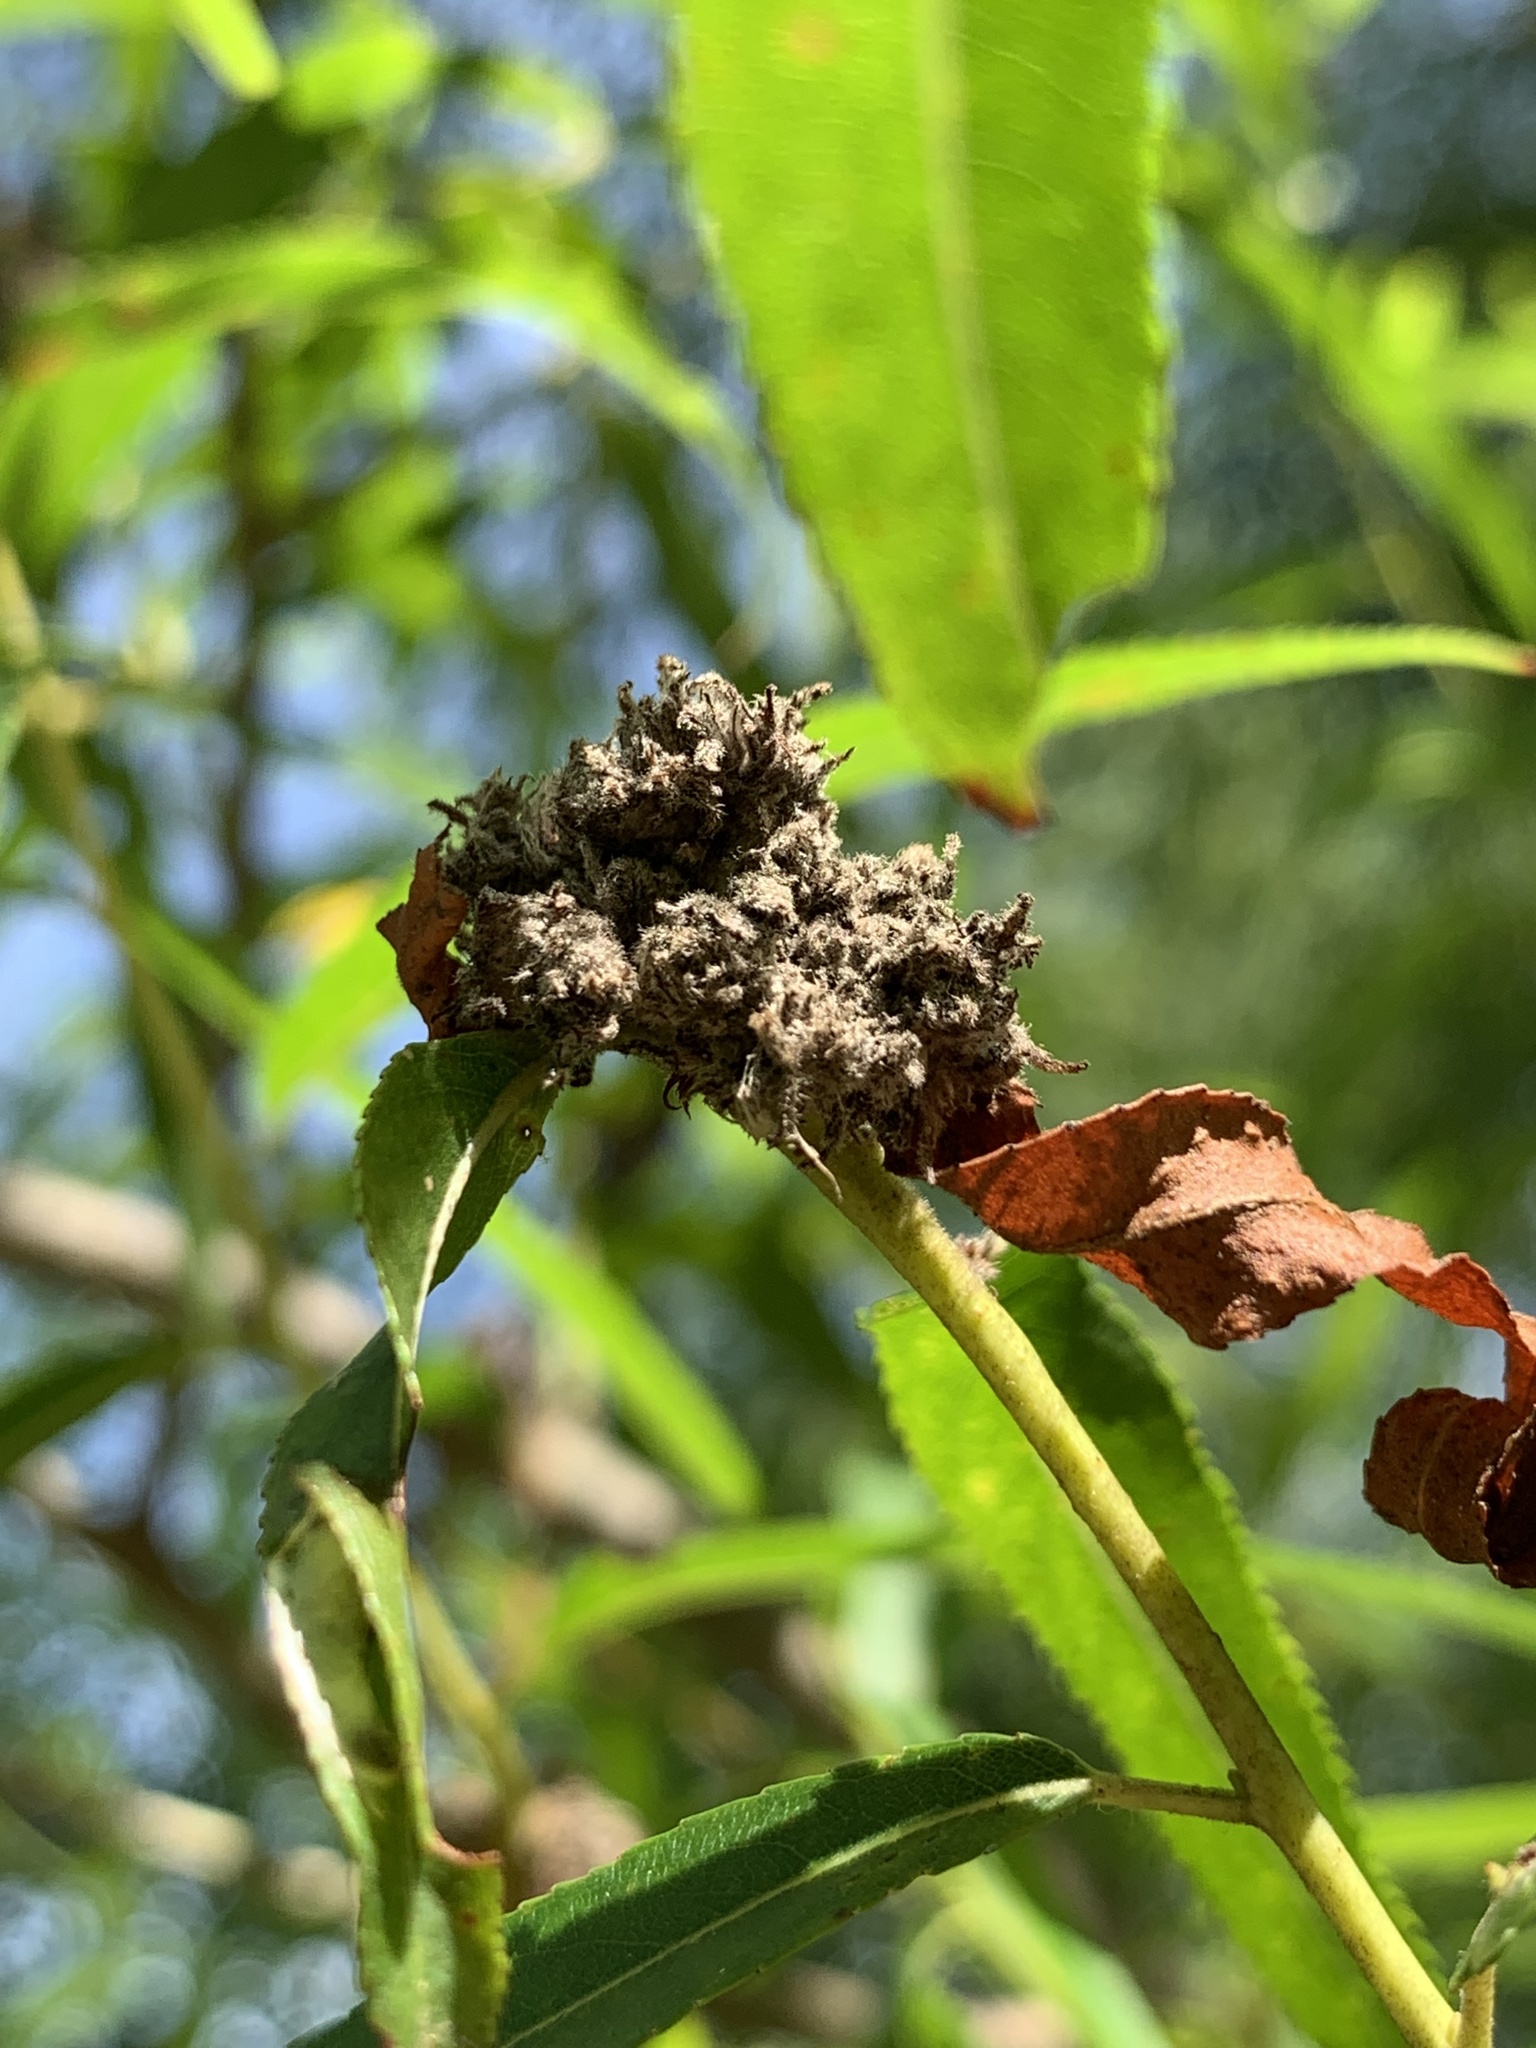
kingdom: Animalia
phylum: Arthropoda
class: Arachnida
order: Trombidiformes
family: Eriophyidae
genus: Aculops
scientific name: Aculops
